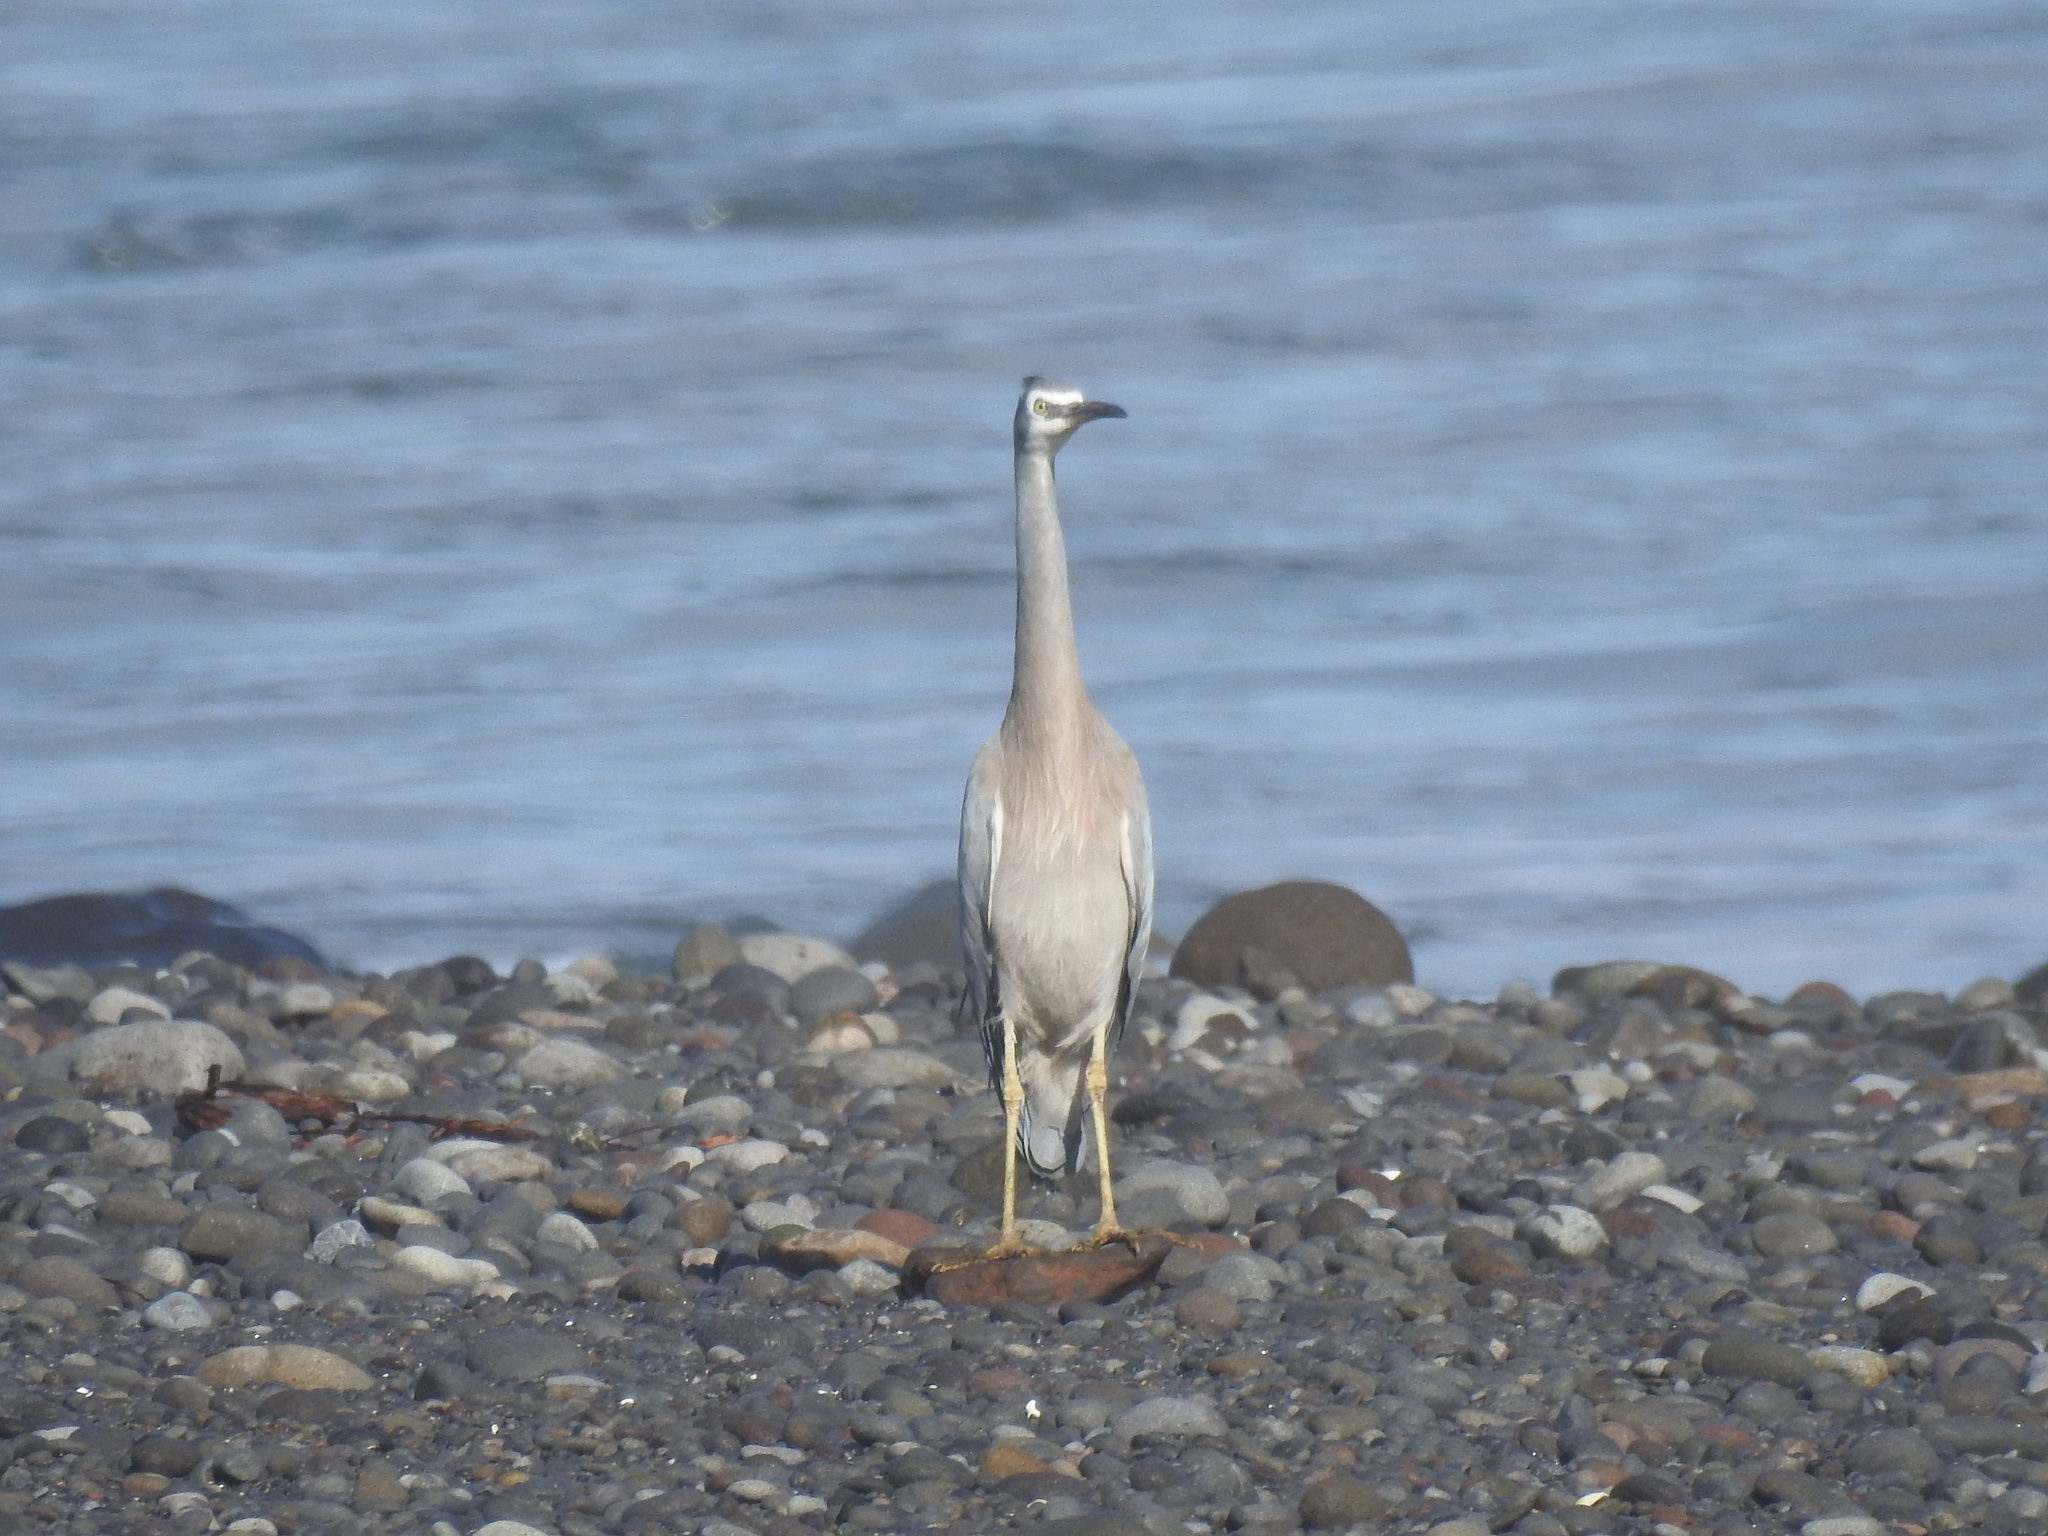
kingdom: Animalia
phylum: Chordata
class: Aves
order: Pelecaniformes
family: Ardeidae
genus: Egretta
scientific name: Egretta novaehollandiae
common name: White-faced heron
